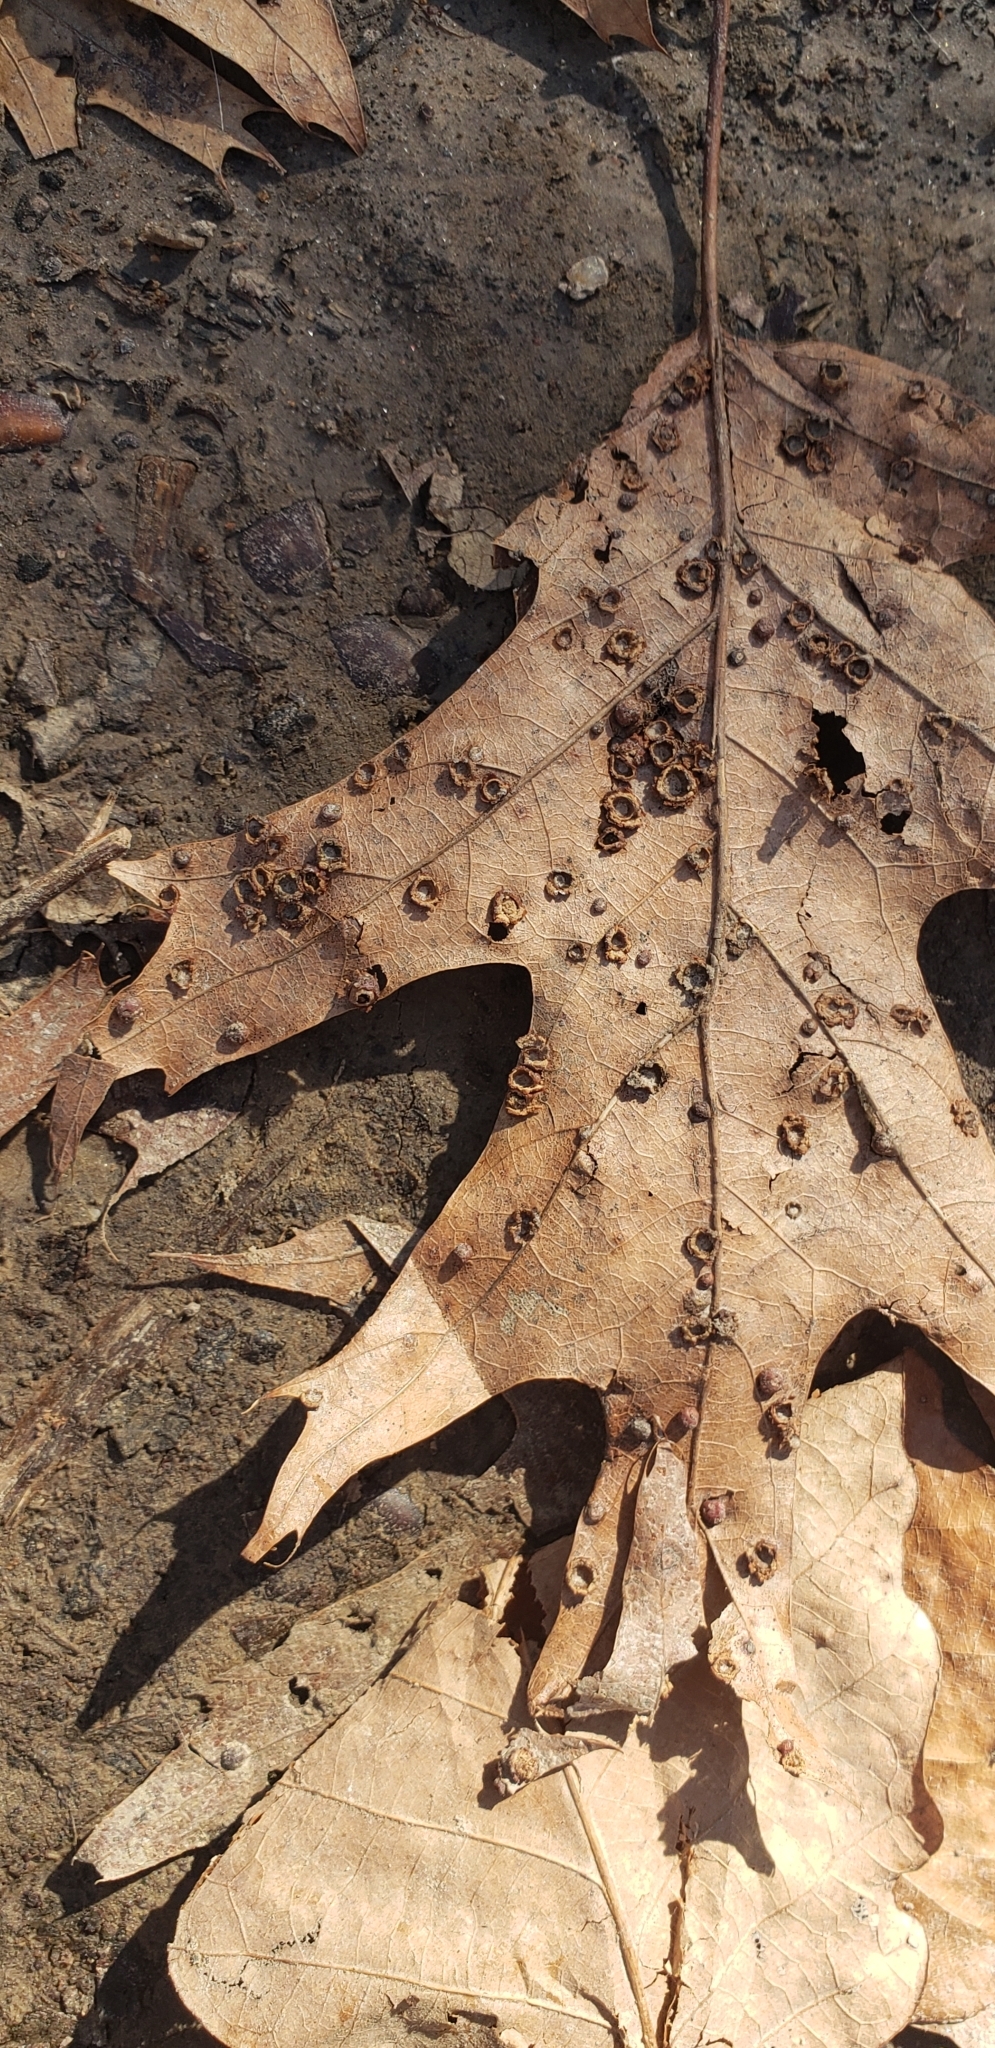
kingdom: Animalia
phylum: Arthropoda
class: Insecta
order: Diptera
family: Cecidomyiidae
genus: Polystepha
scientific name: Polystepha pilulae
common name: Oak leaf gall midge
